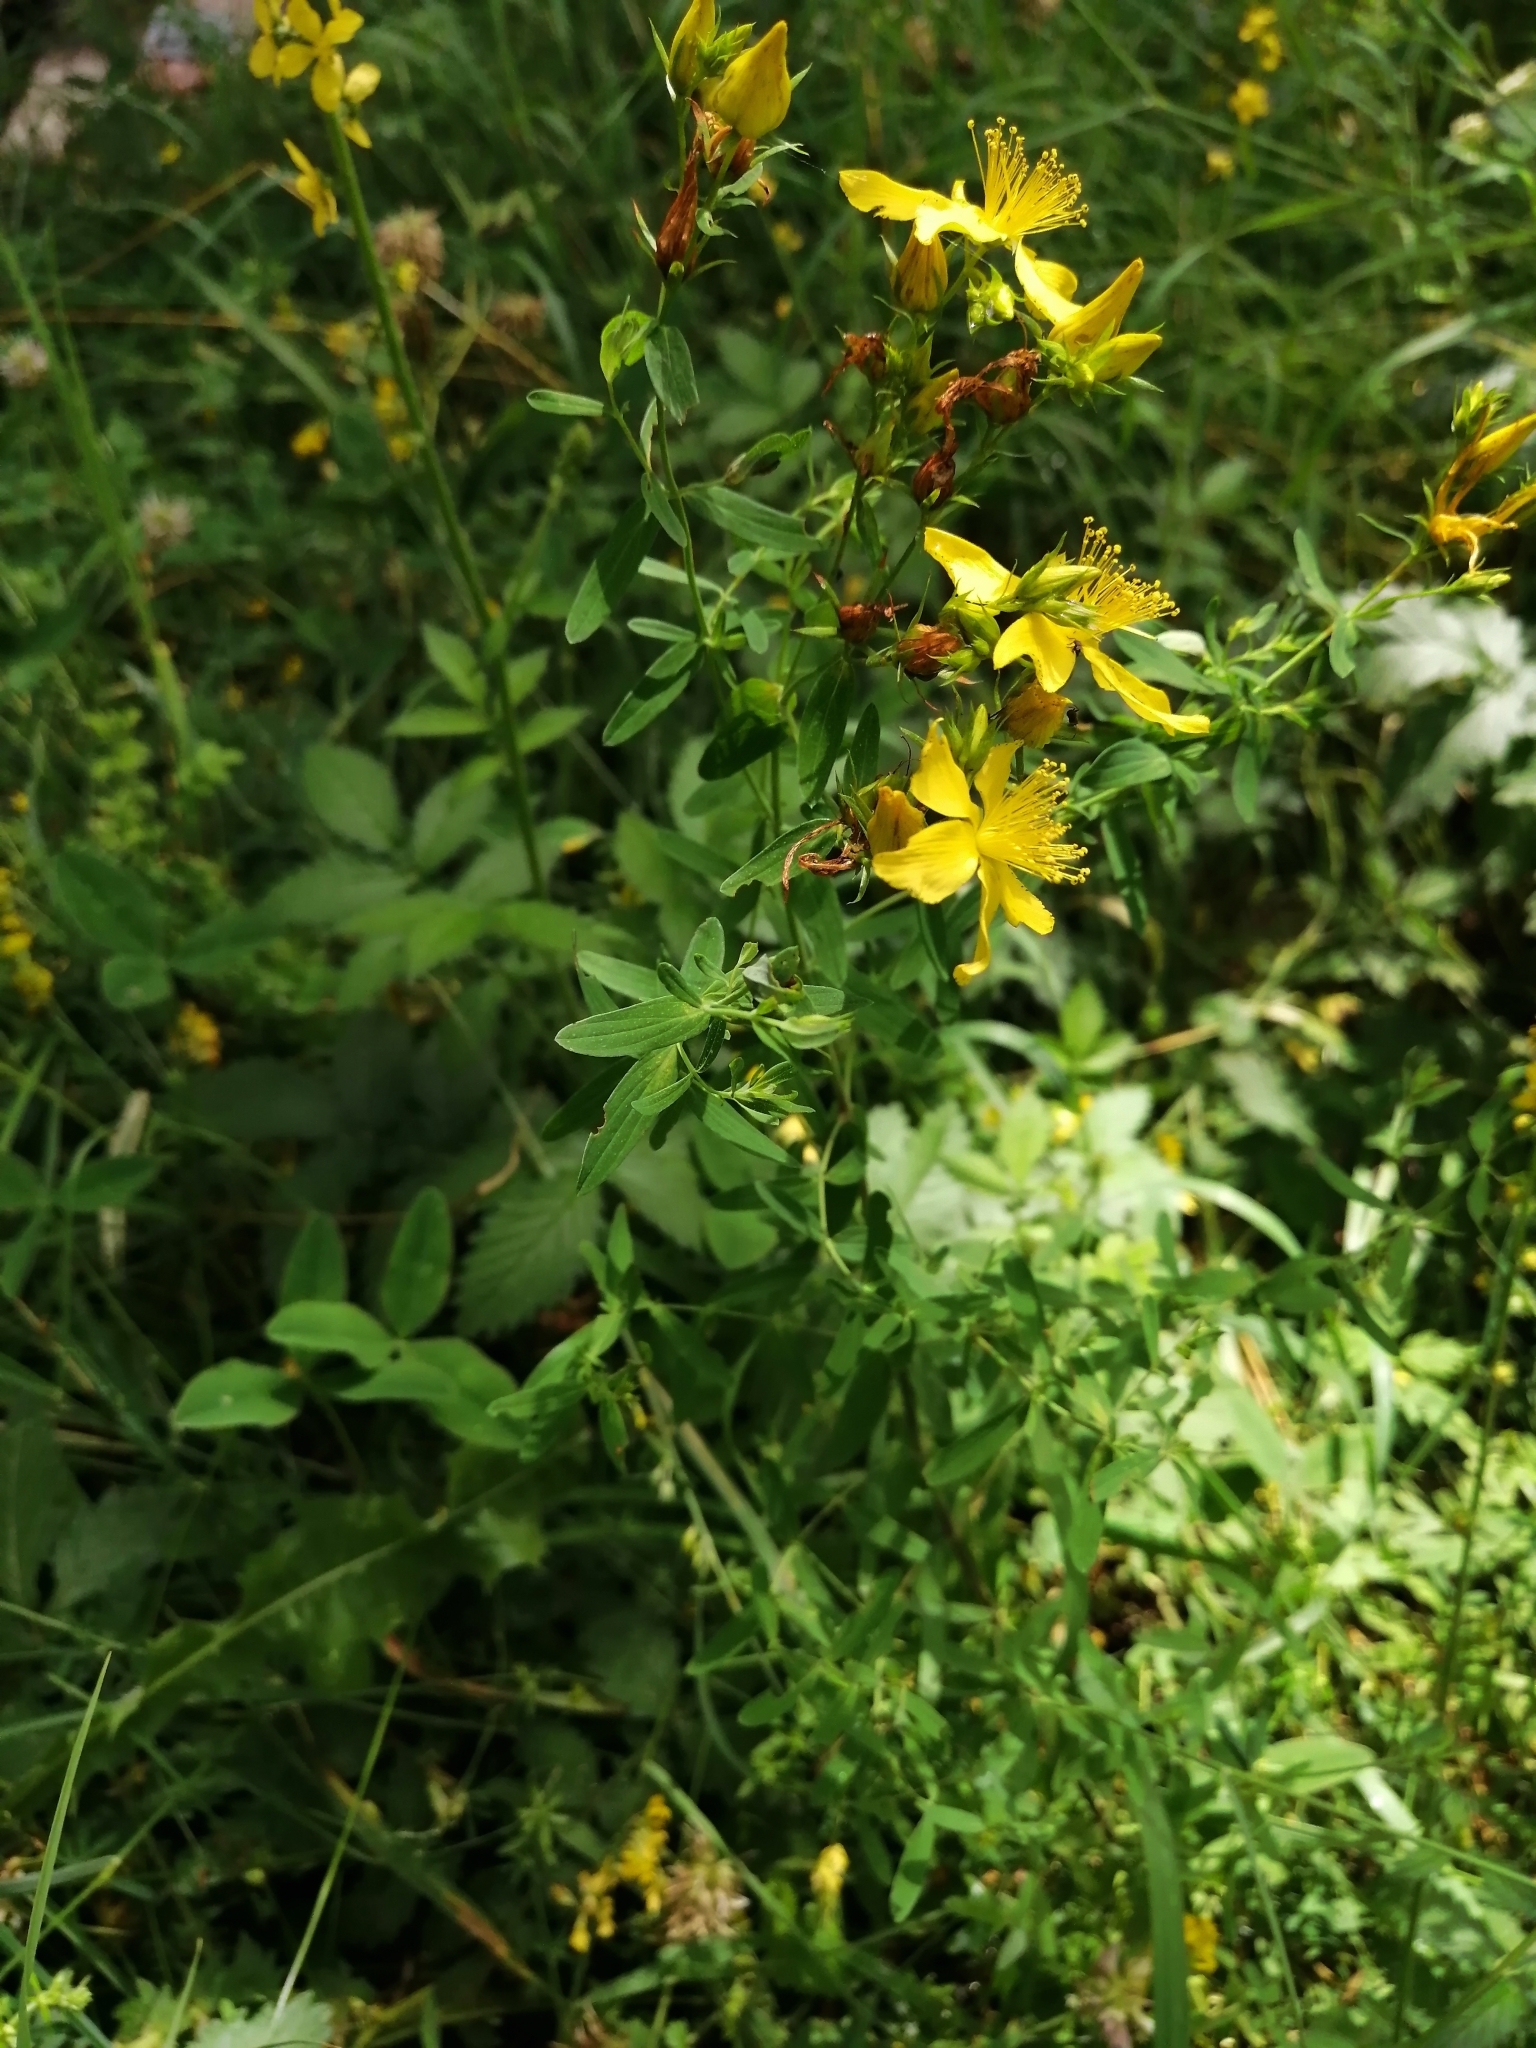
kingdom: Plantae
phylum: Tracheophyta
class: Magnoliopsida
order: Malpighiales
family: Hypericaceae
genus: Hypericum
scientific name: Hypericum perforatum
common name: Common st. johnswort
